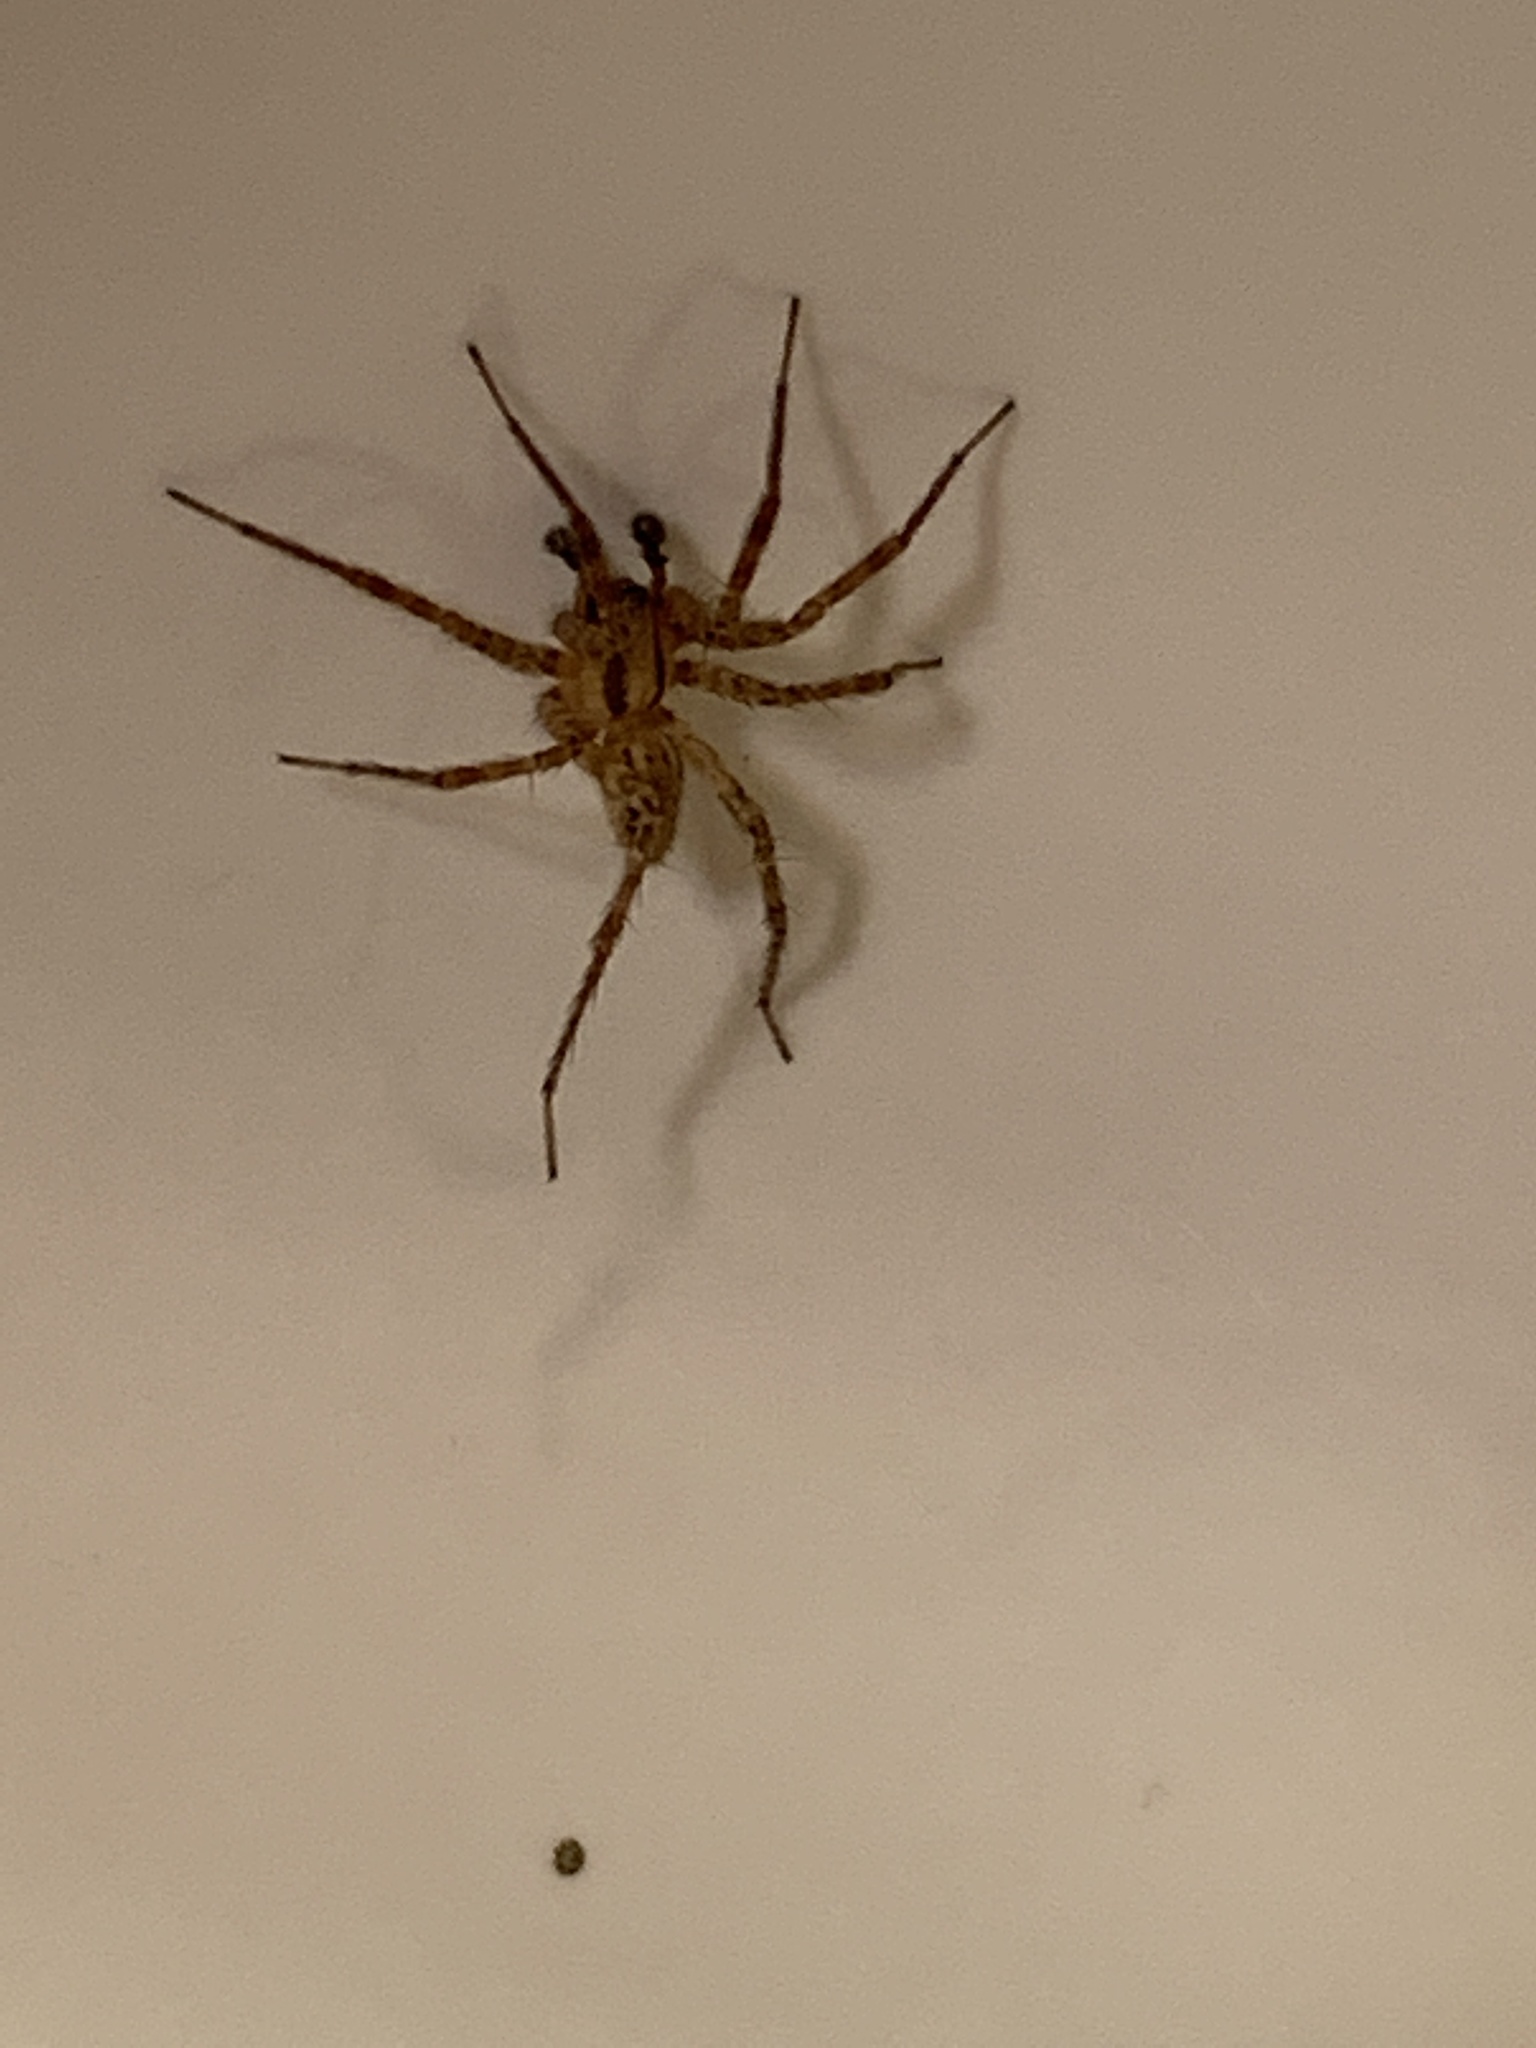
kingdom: Animalia
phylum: Arthropoda
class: Arachnida
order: Araneae
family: Agelenidae
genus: Hololena
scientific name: Hololena nedra
